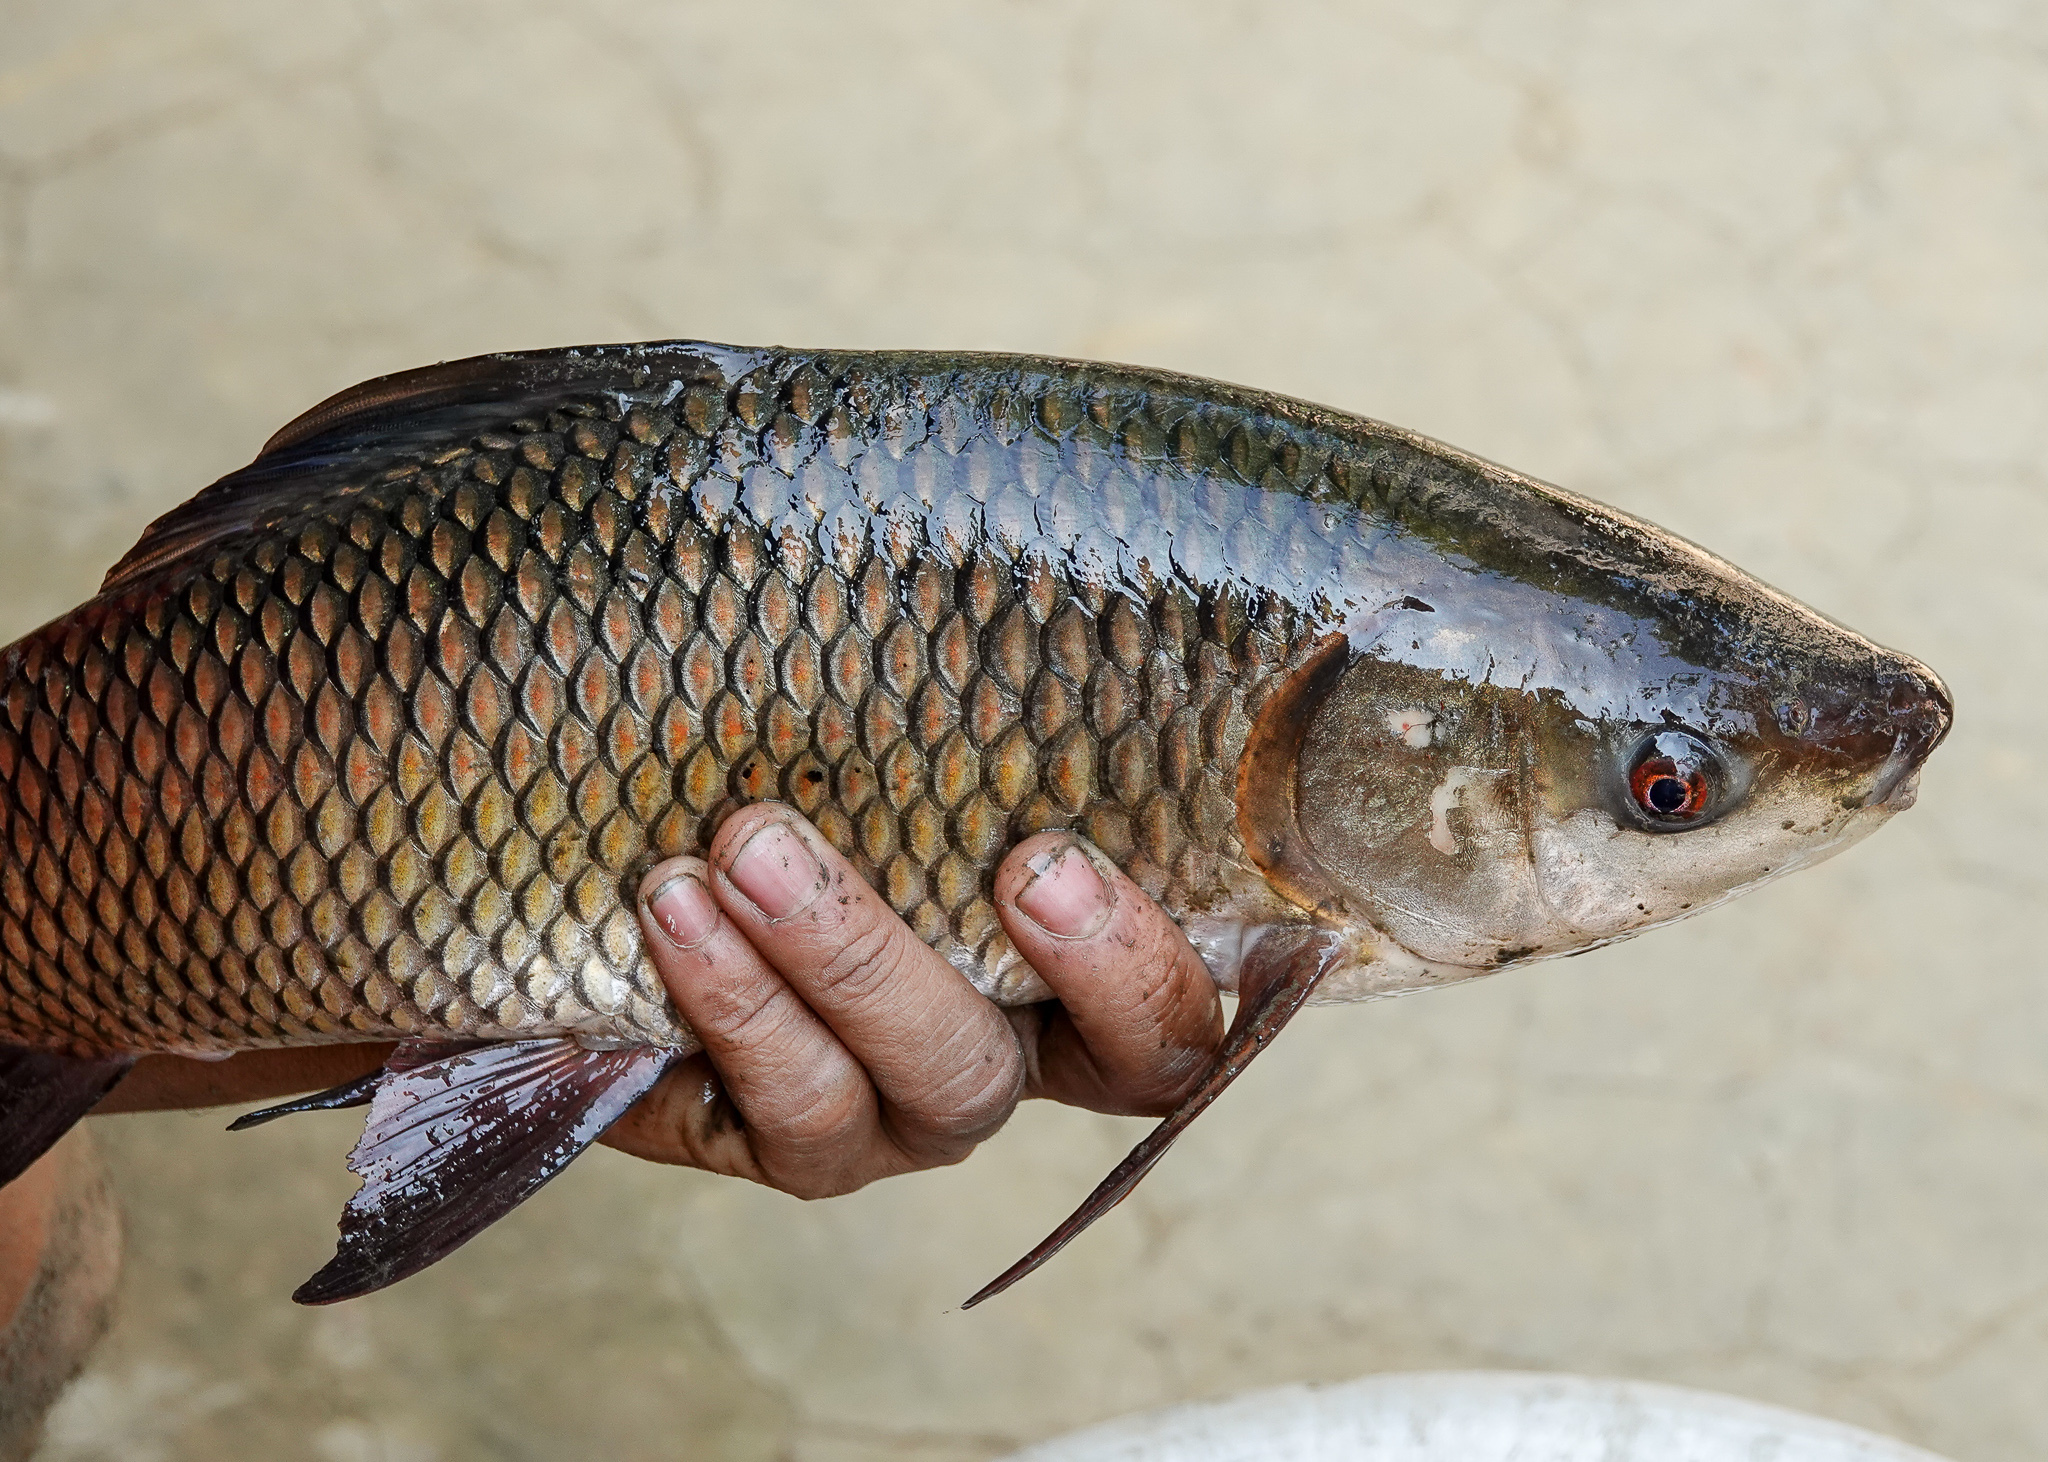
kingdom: Animalia
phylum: Chordata
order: Cypriniformes
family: Cyprinidae
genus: Labeo
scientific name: Labeo rohita
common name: Rohu
